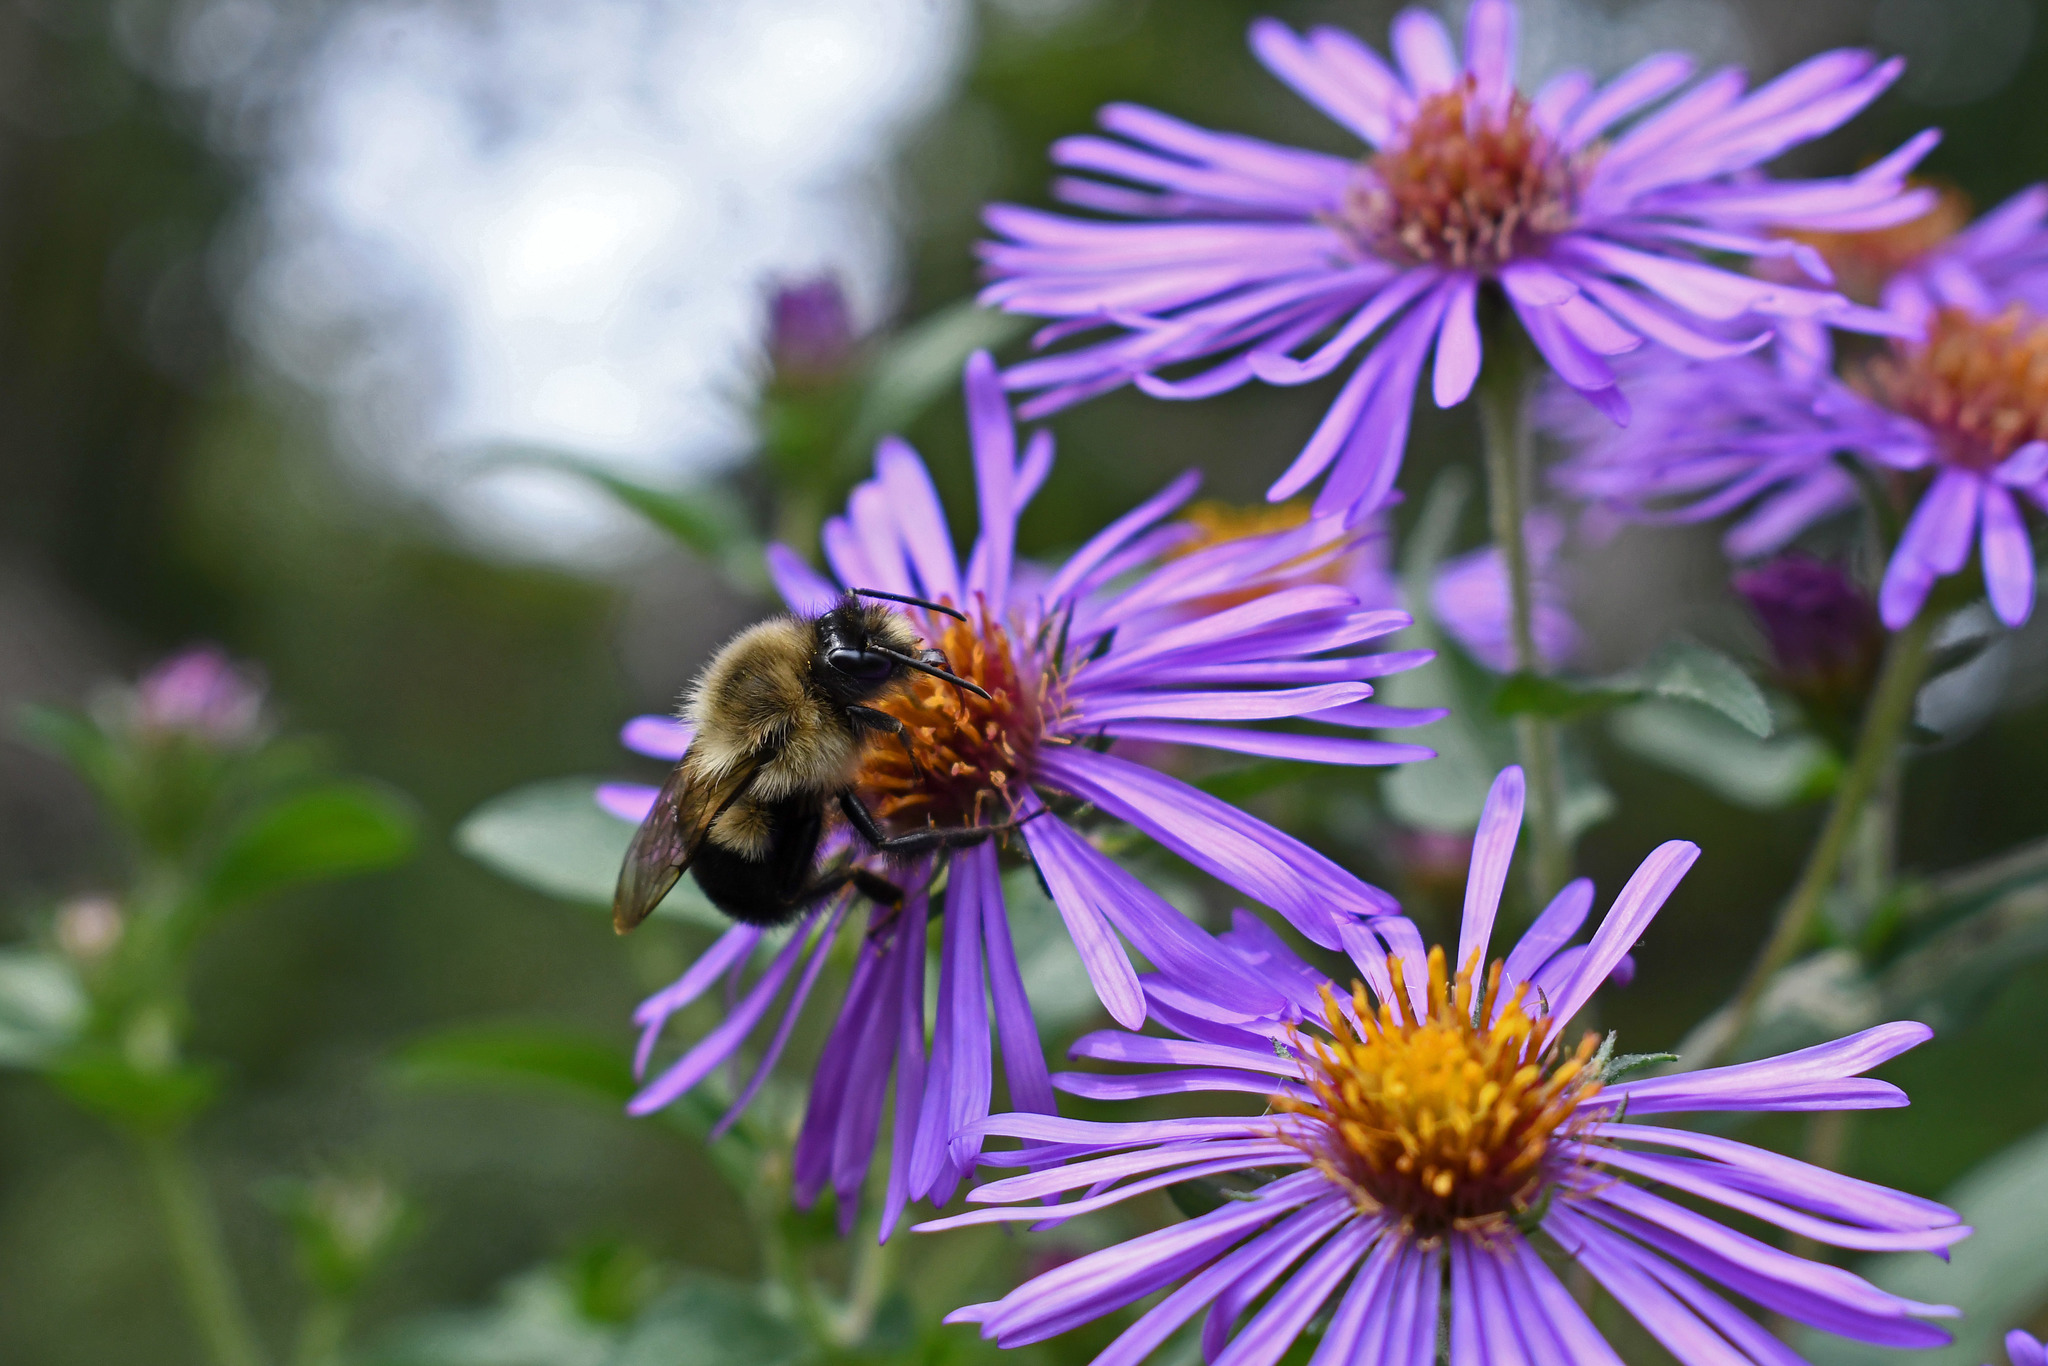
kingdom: Animalia
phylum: Arthropoda
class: Insecta
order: Hymenoptera
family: Apidae
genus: Bombus
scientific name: Bombus impatiens
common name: Common eastern bumble bee
